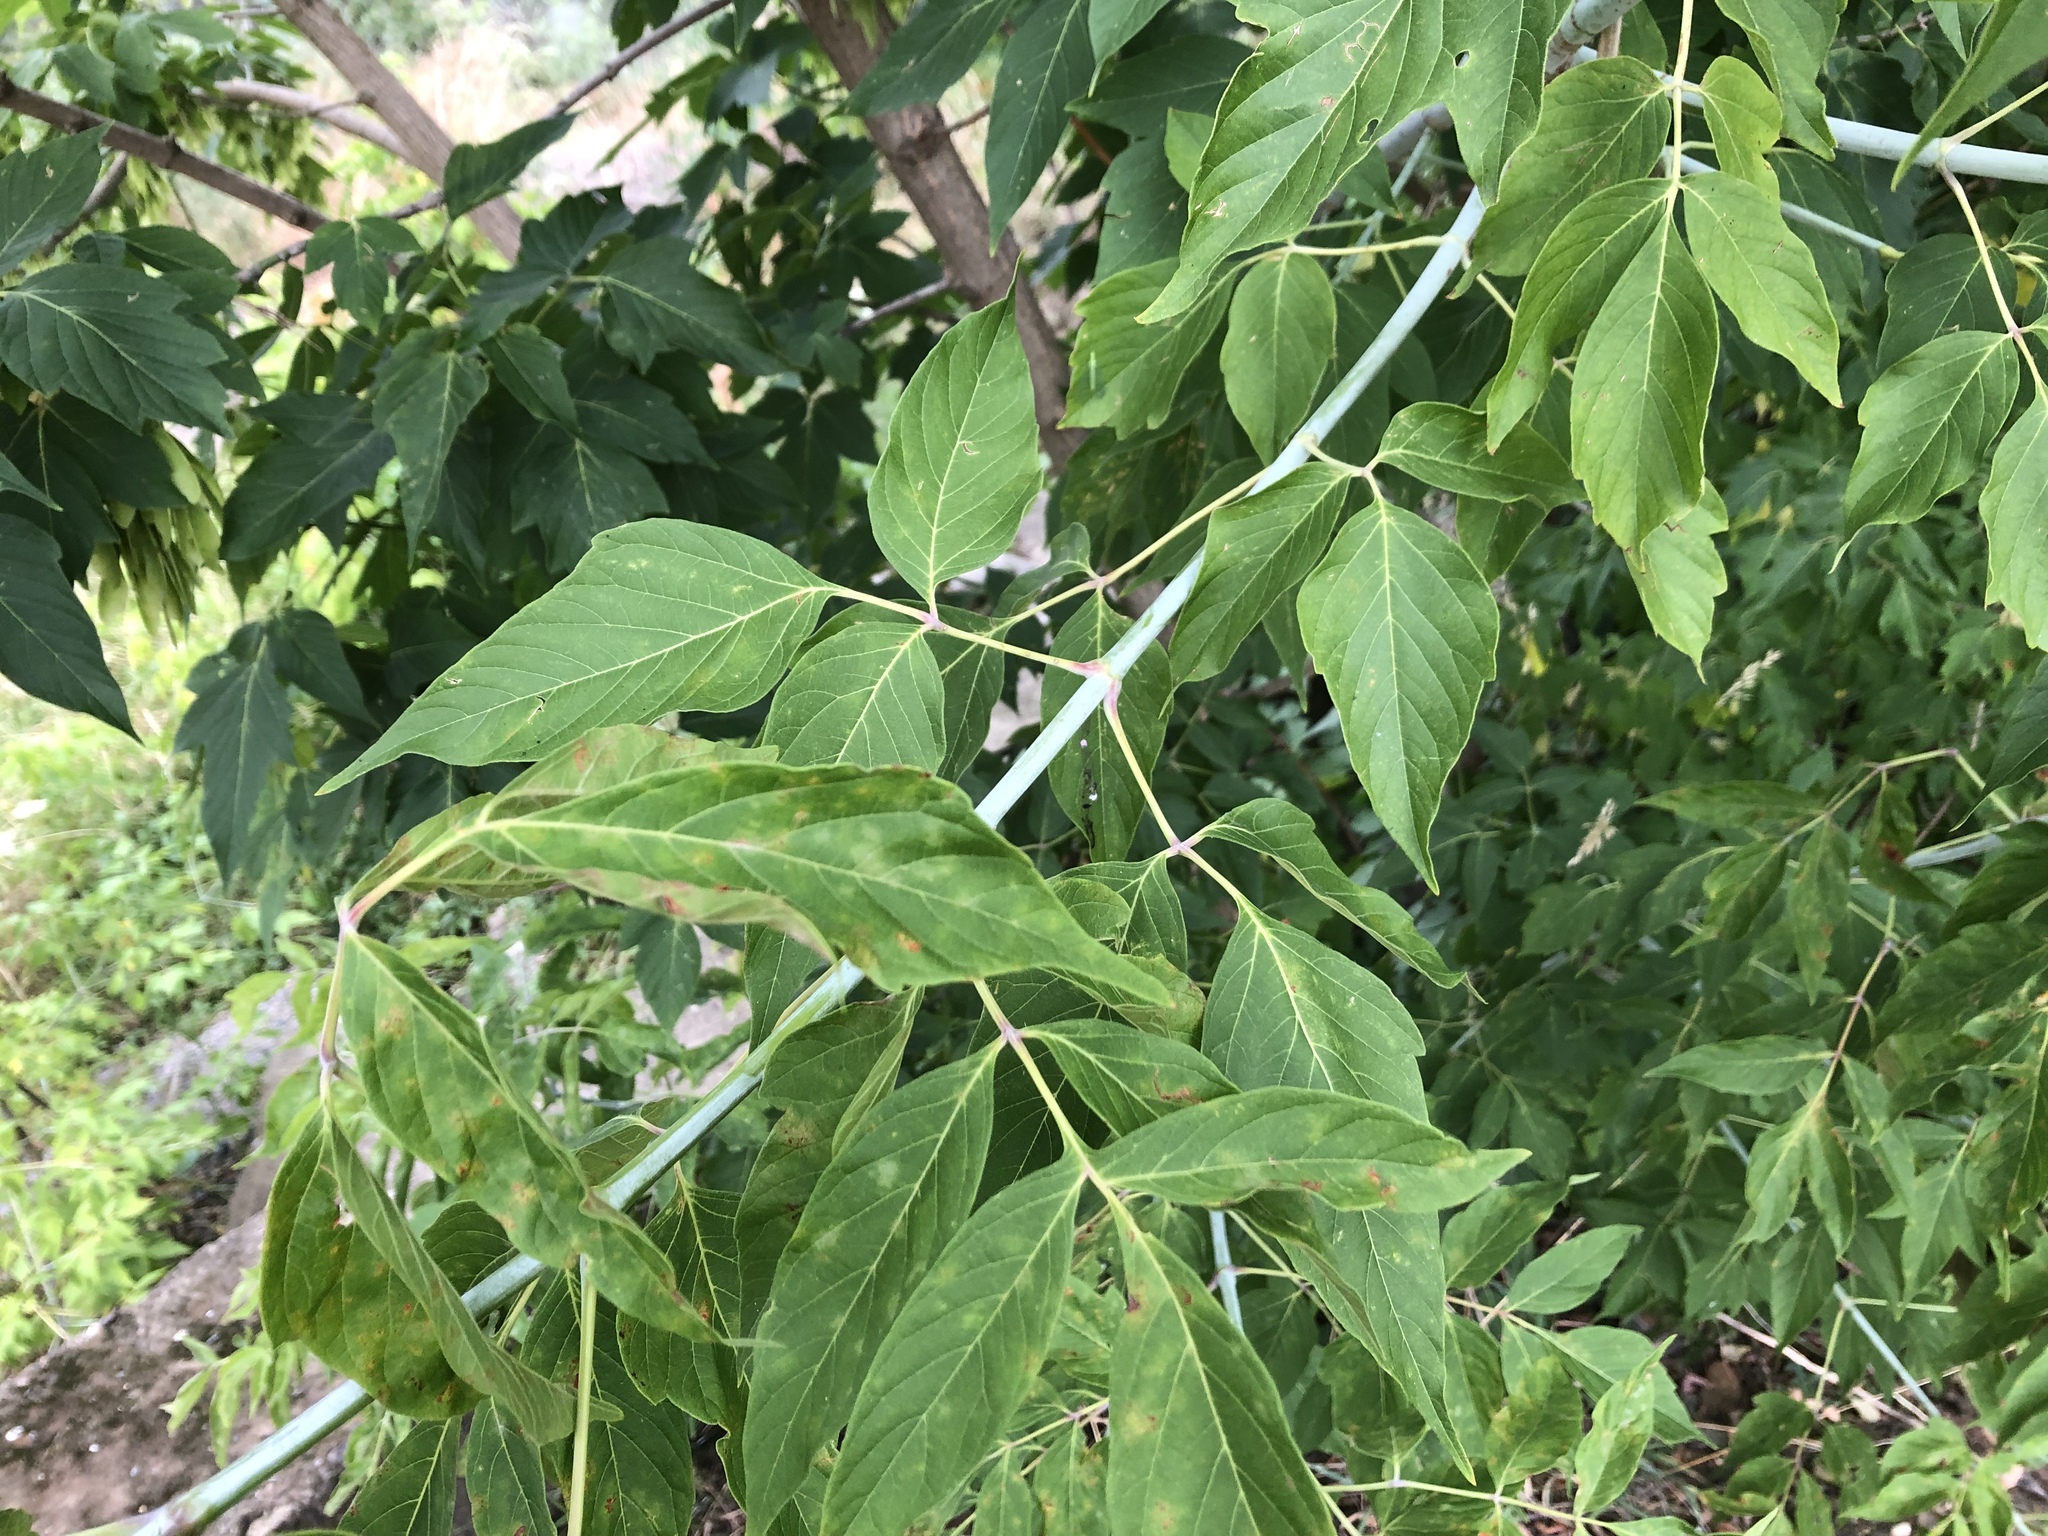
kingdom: Plantae
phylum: Tracheophyta
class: Magnoliopsida
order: Sapindales
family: Sapindaceae
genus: Acer
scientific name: Acer negundo
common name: Ashleaf maple
